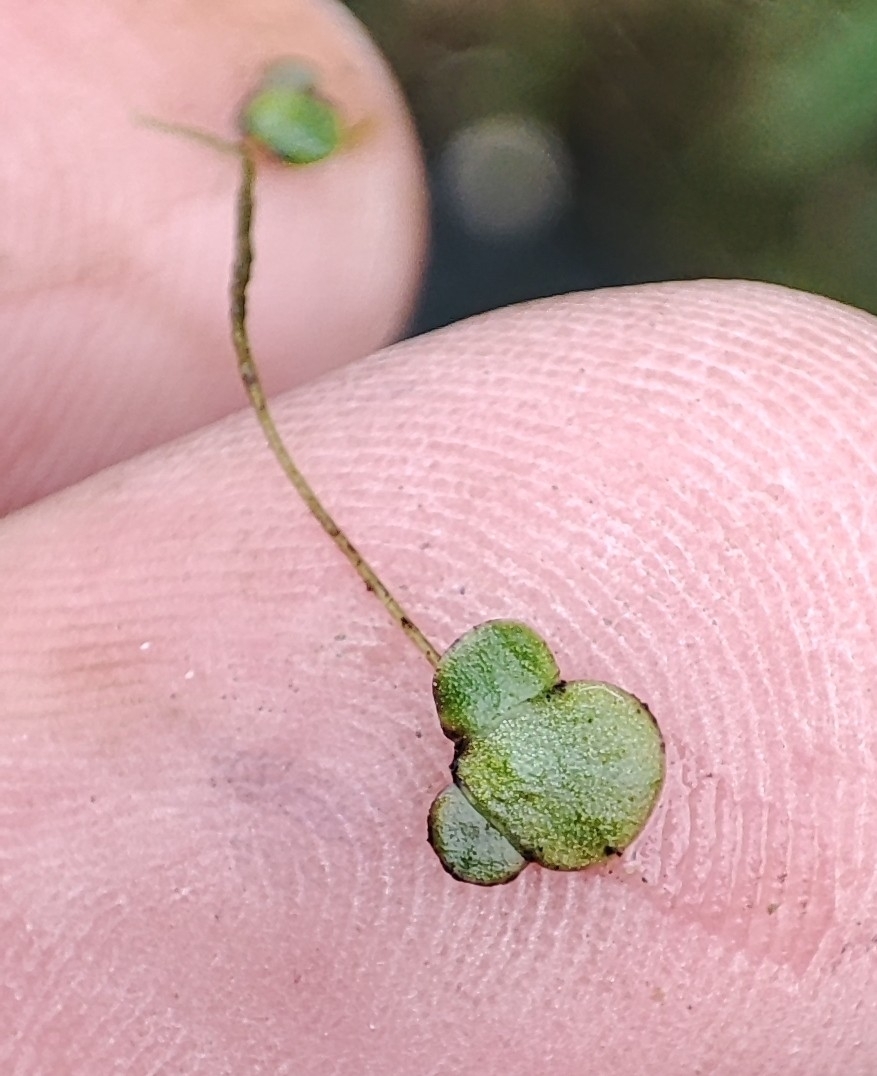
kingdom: Plantae
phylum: Tracheophyta
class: Liliopsida
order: Alismatales
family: Araceae
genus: Lemna
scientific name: Lemna minor
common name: Common duckweed
